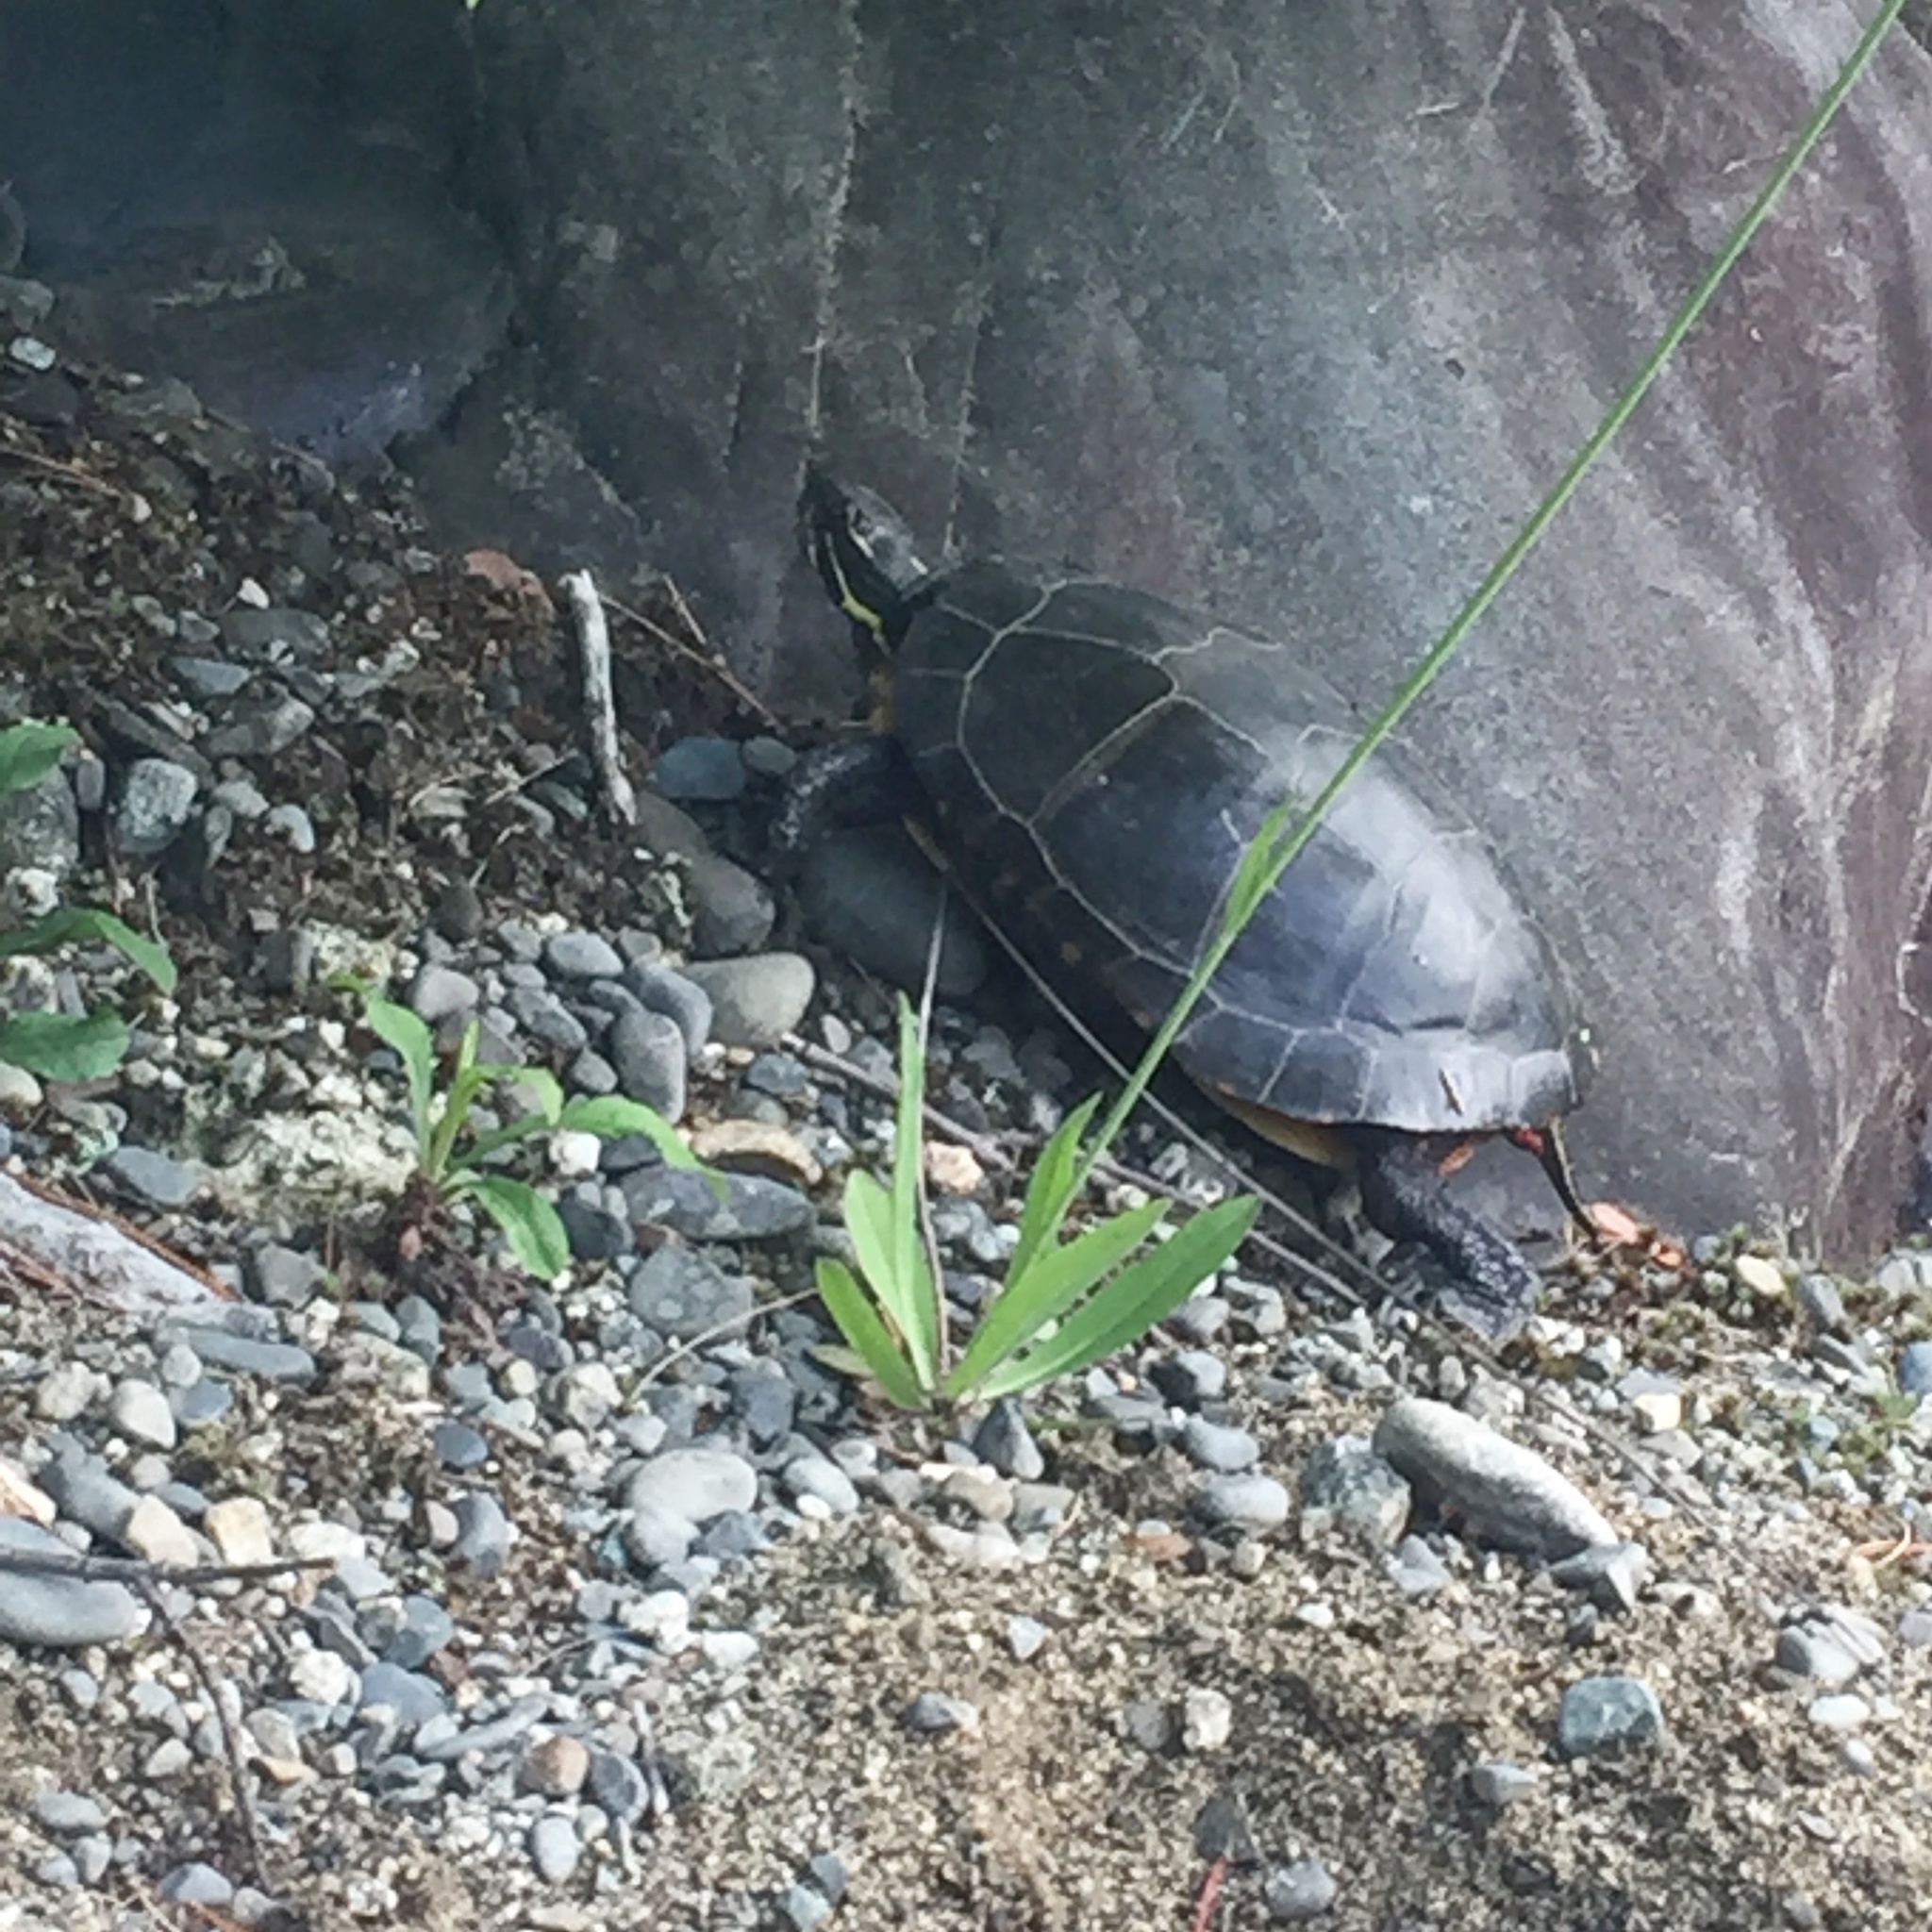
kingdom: Animalia
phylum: Chordata
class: Testudines
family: Emydidae
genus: Chrysemys
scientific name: Chrysemys picta
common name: Painted turtle
